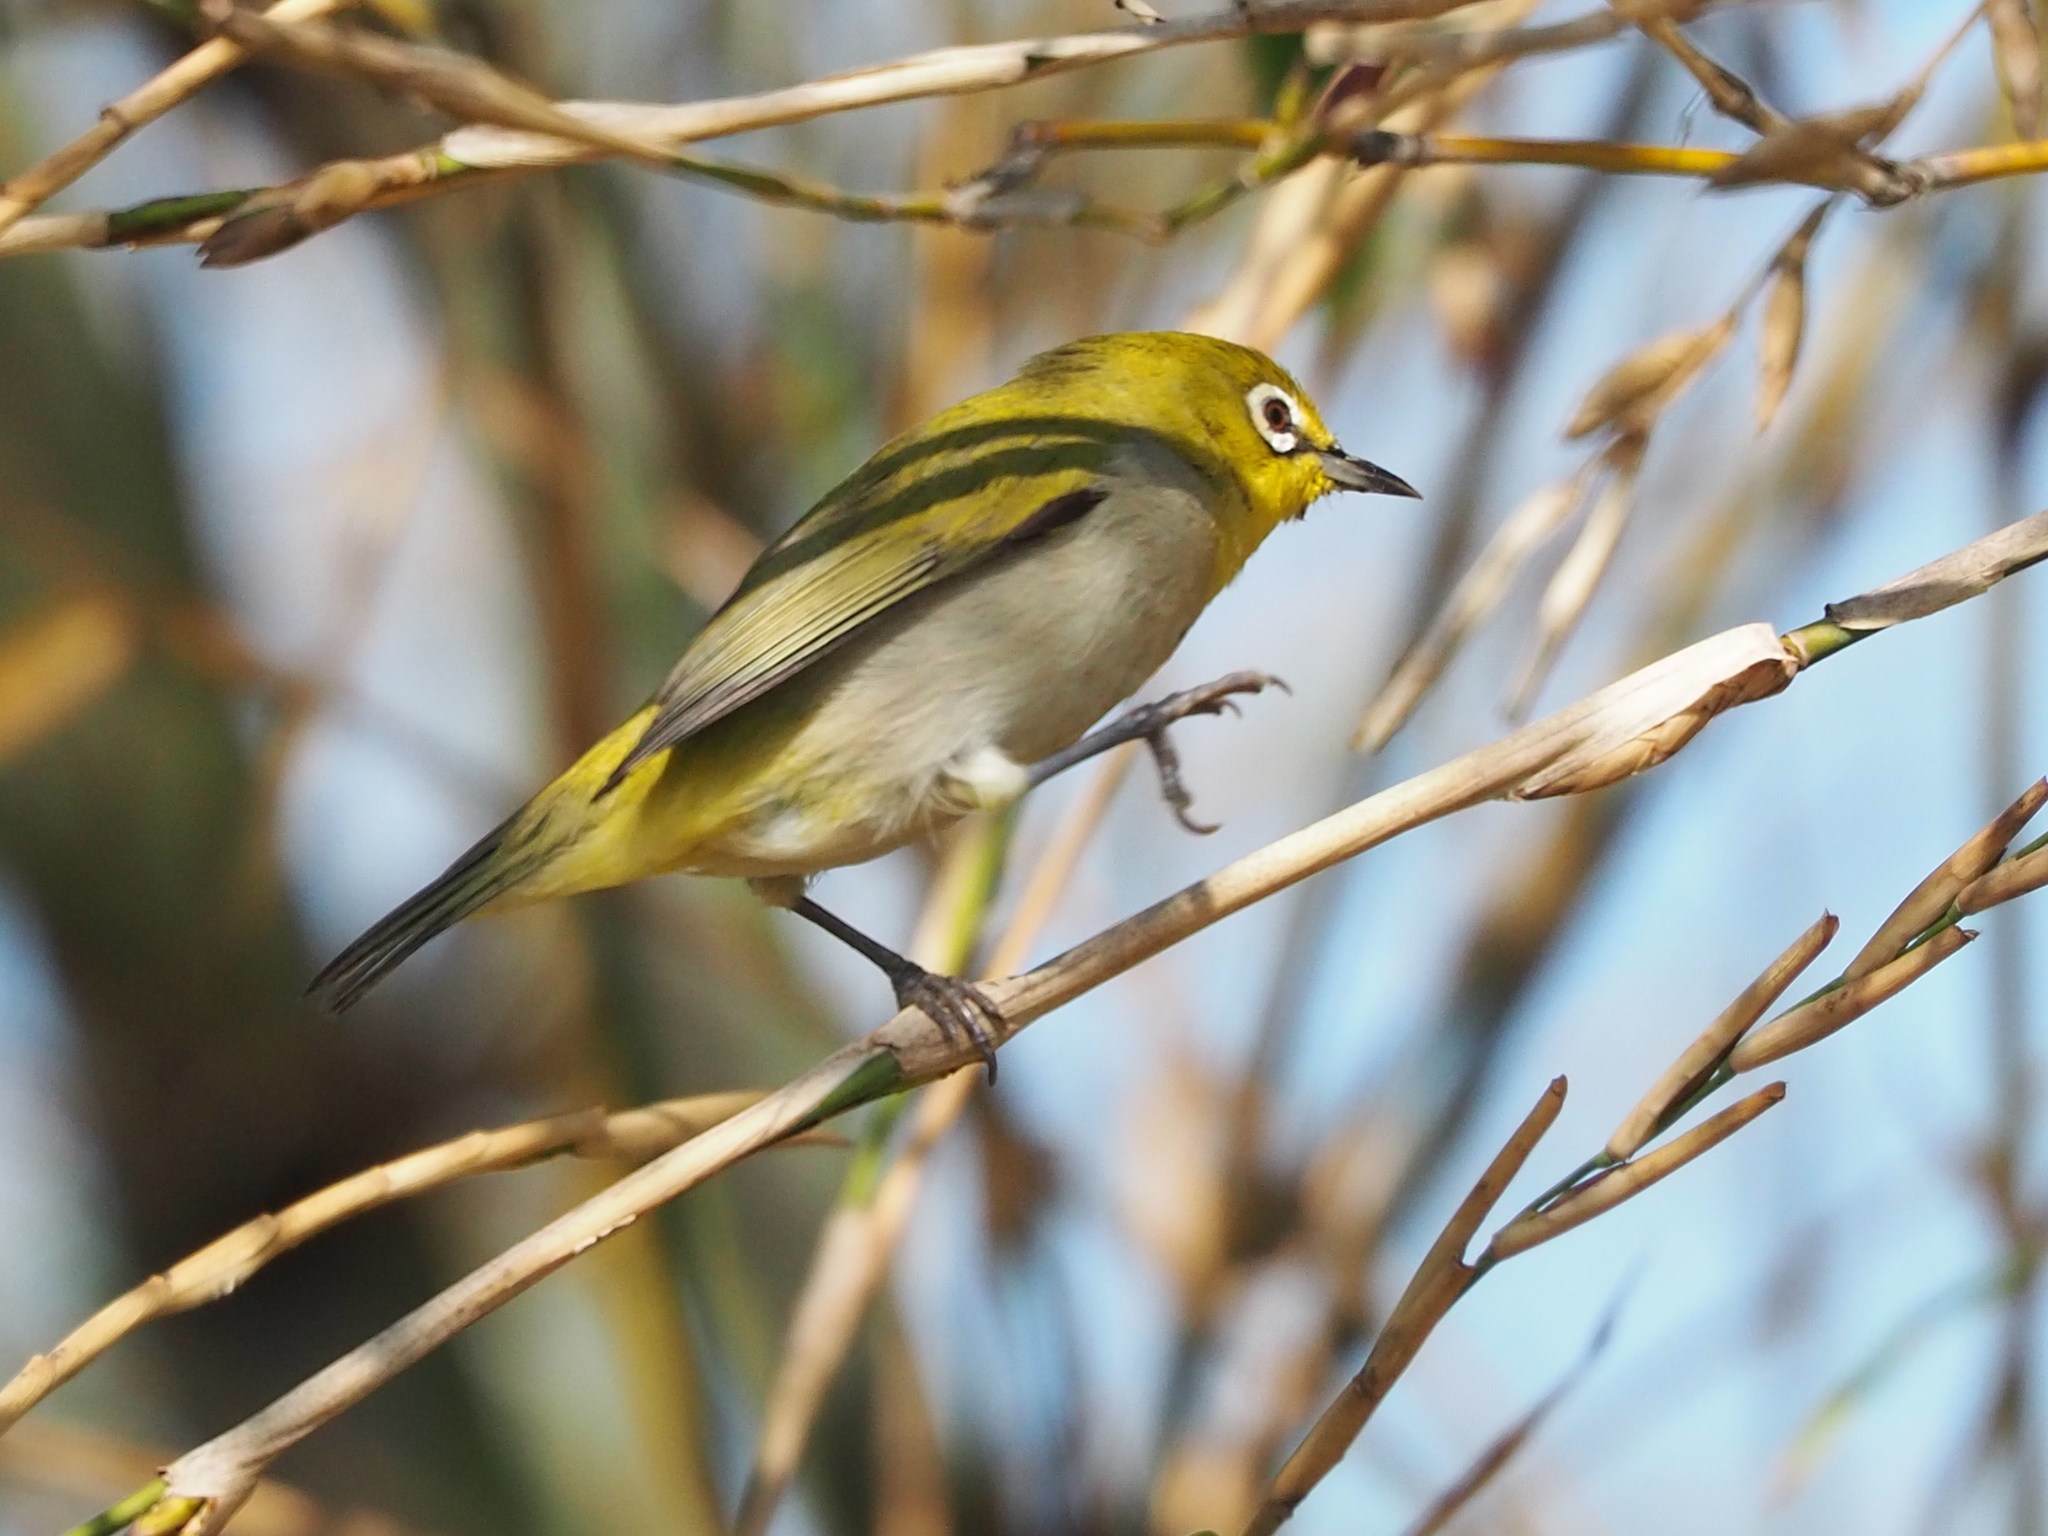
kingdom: Animalia
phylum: Chordata
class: Aves
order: Passeriformes
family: Zosteropidae
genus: Zosterops
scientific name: Zosterops simplex
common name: Swinhoe's white-eye
